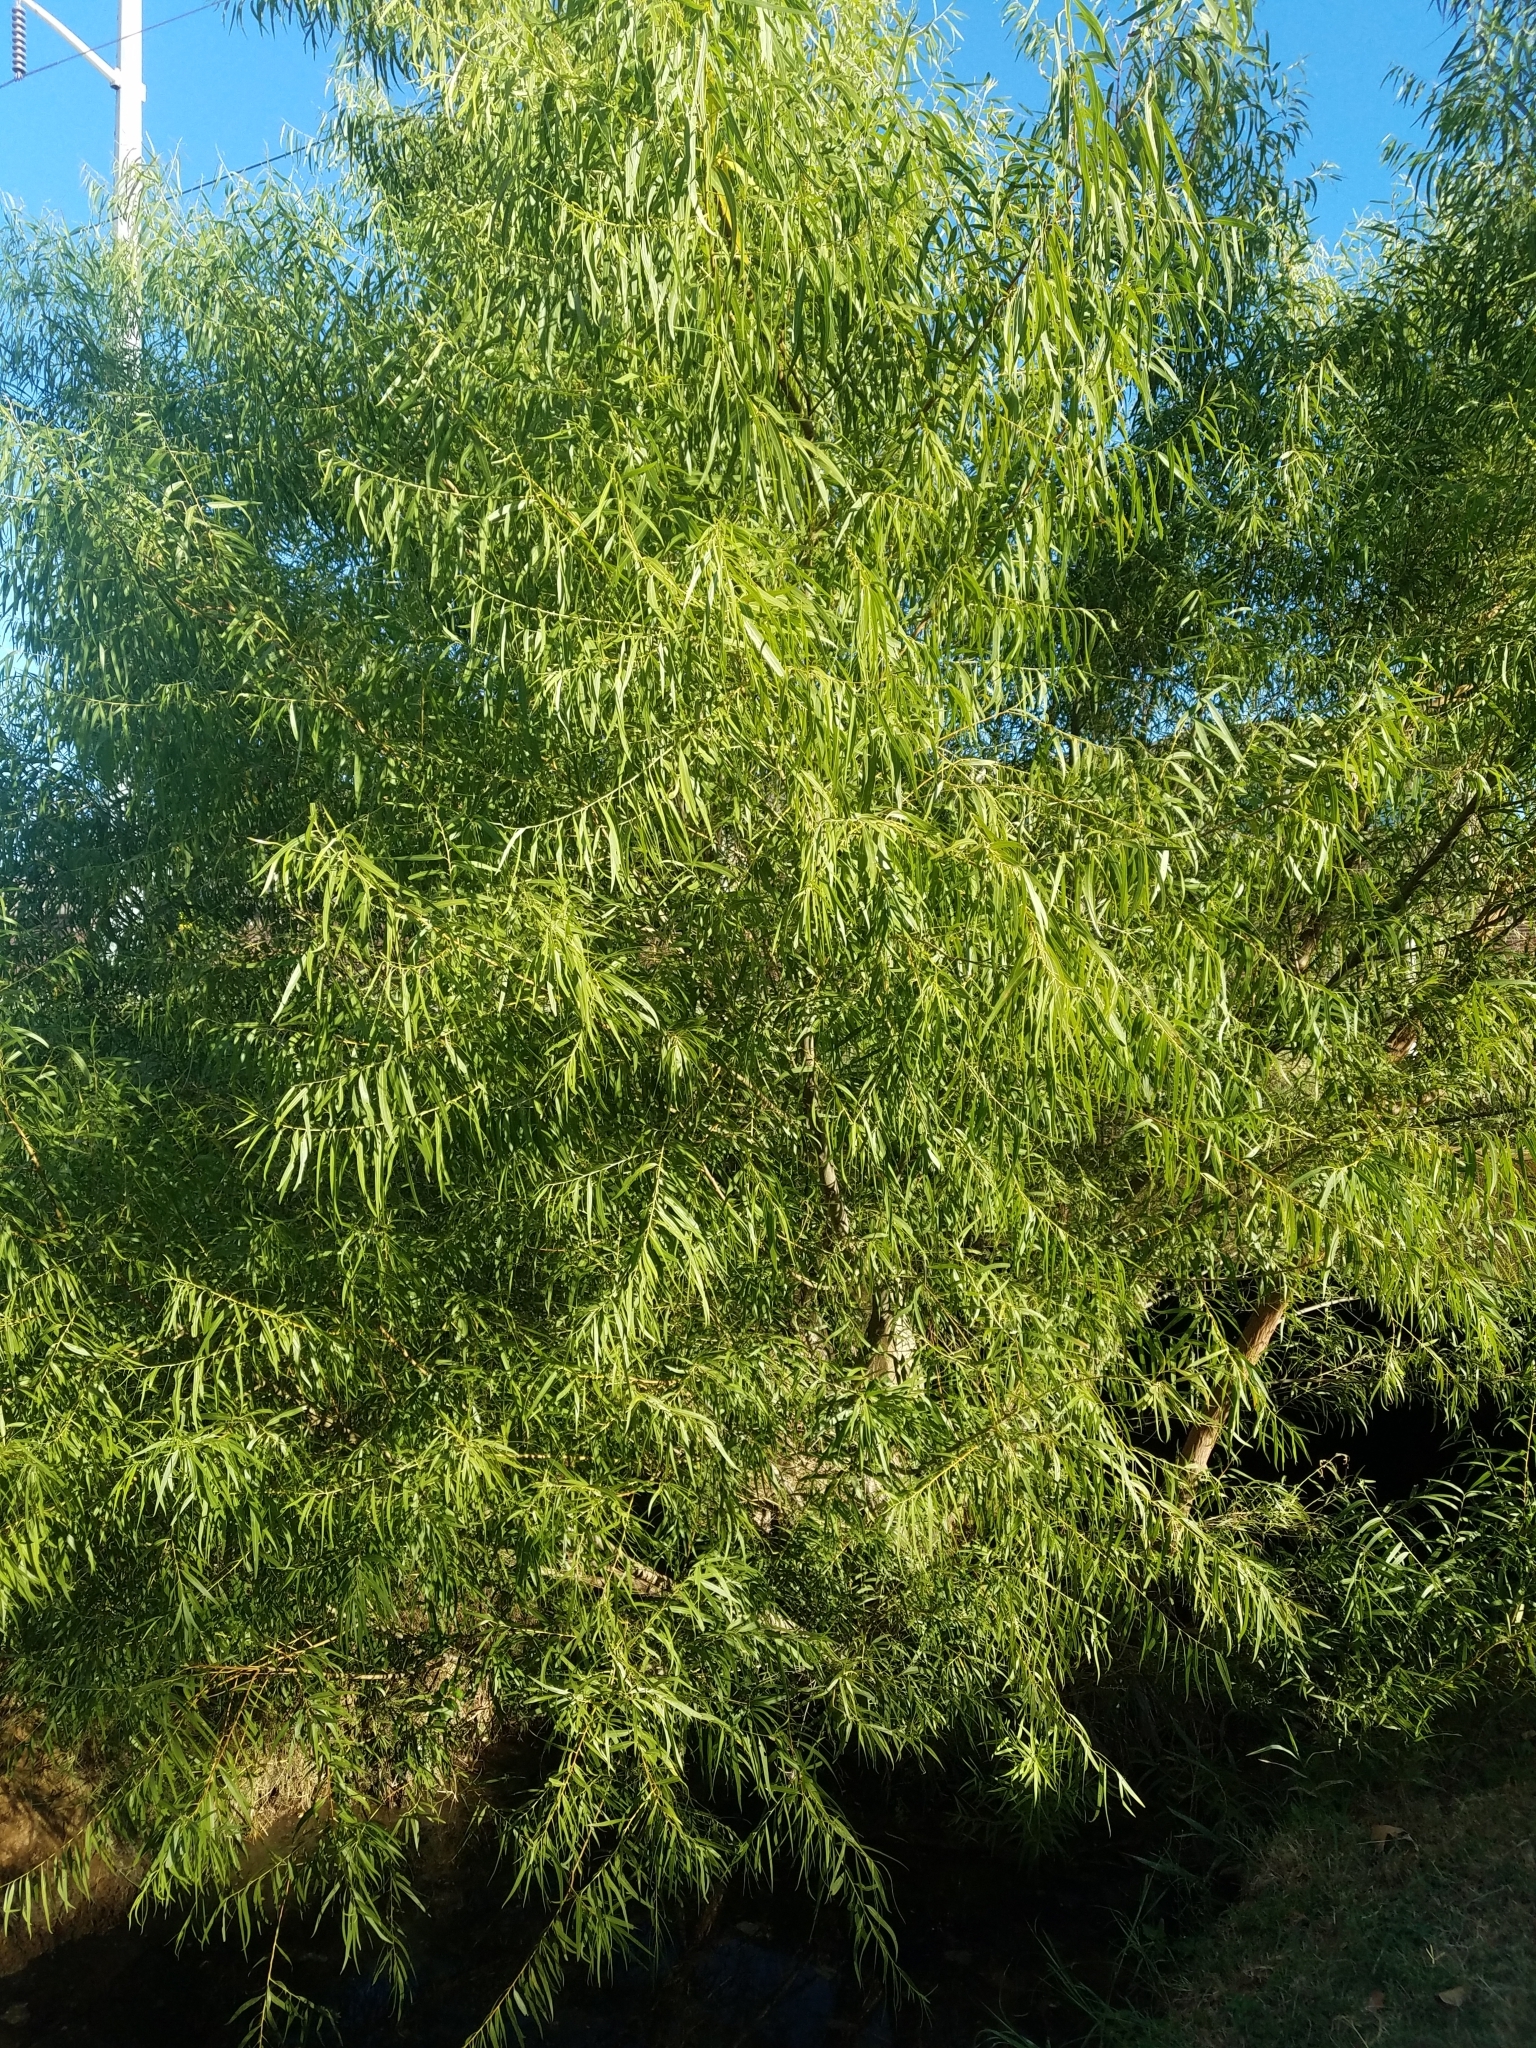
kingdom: Plantae
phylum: Tracheophyta
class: Magnoliopsida
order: Malpighiales
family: Salicaceae
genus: Salix
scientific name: Salix nigra
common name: Black willow
